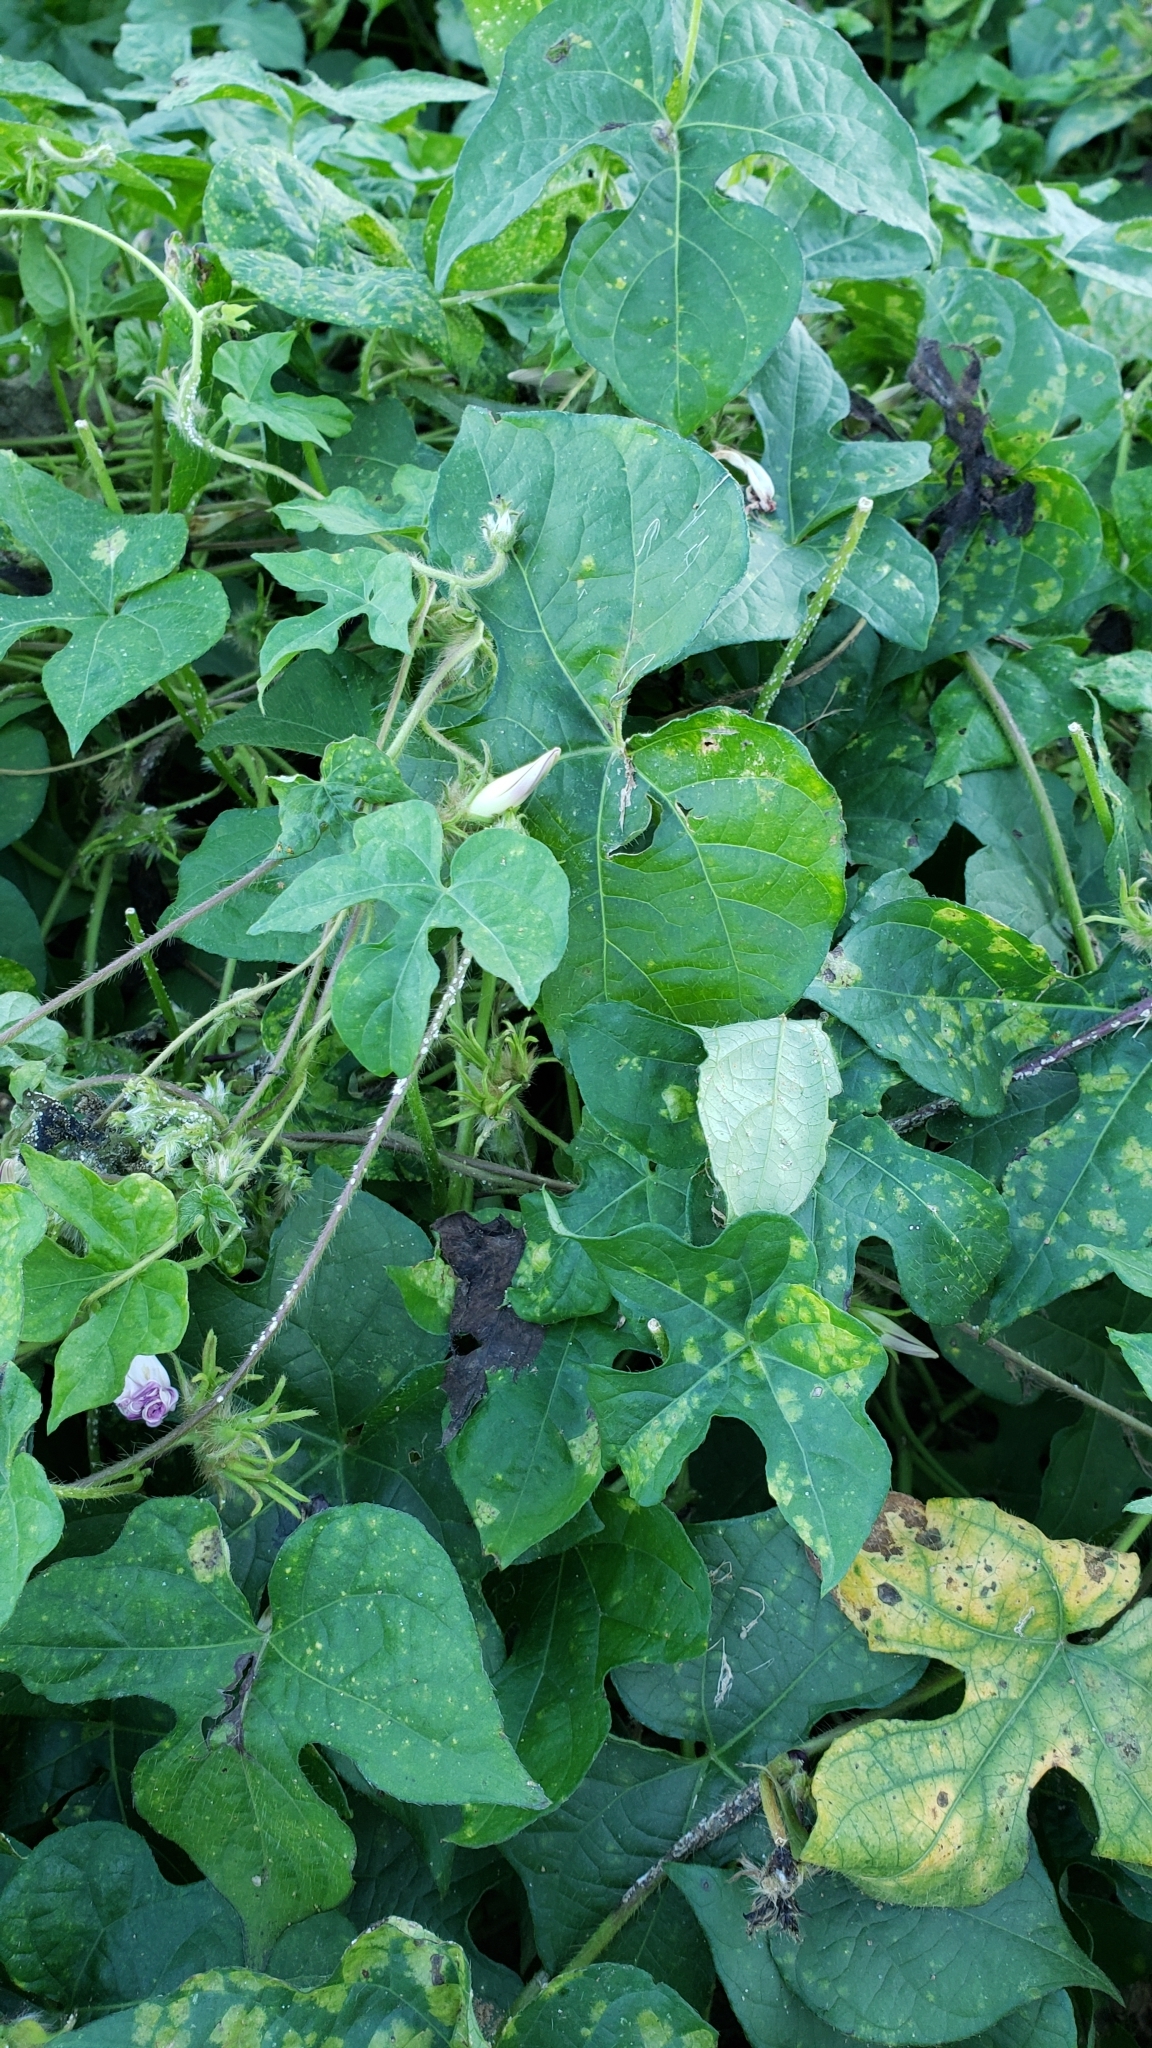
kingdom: Plantae
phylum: Tracheophyta
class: Magnoliopsida
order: Solanales
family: Convolvulaceae
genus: Ipomoea
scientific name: Ipomoea hederacea
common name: Ivy-leaved morning-glory
